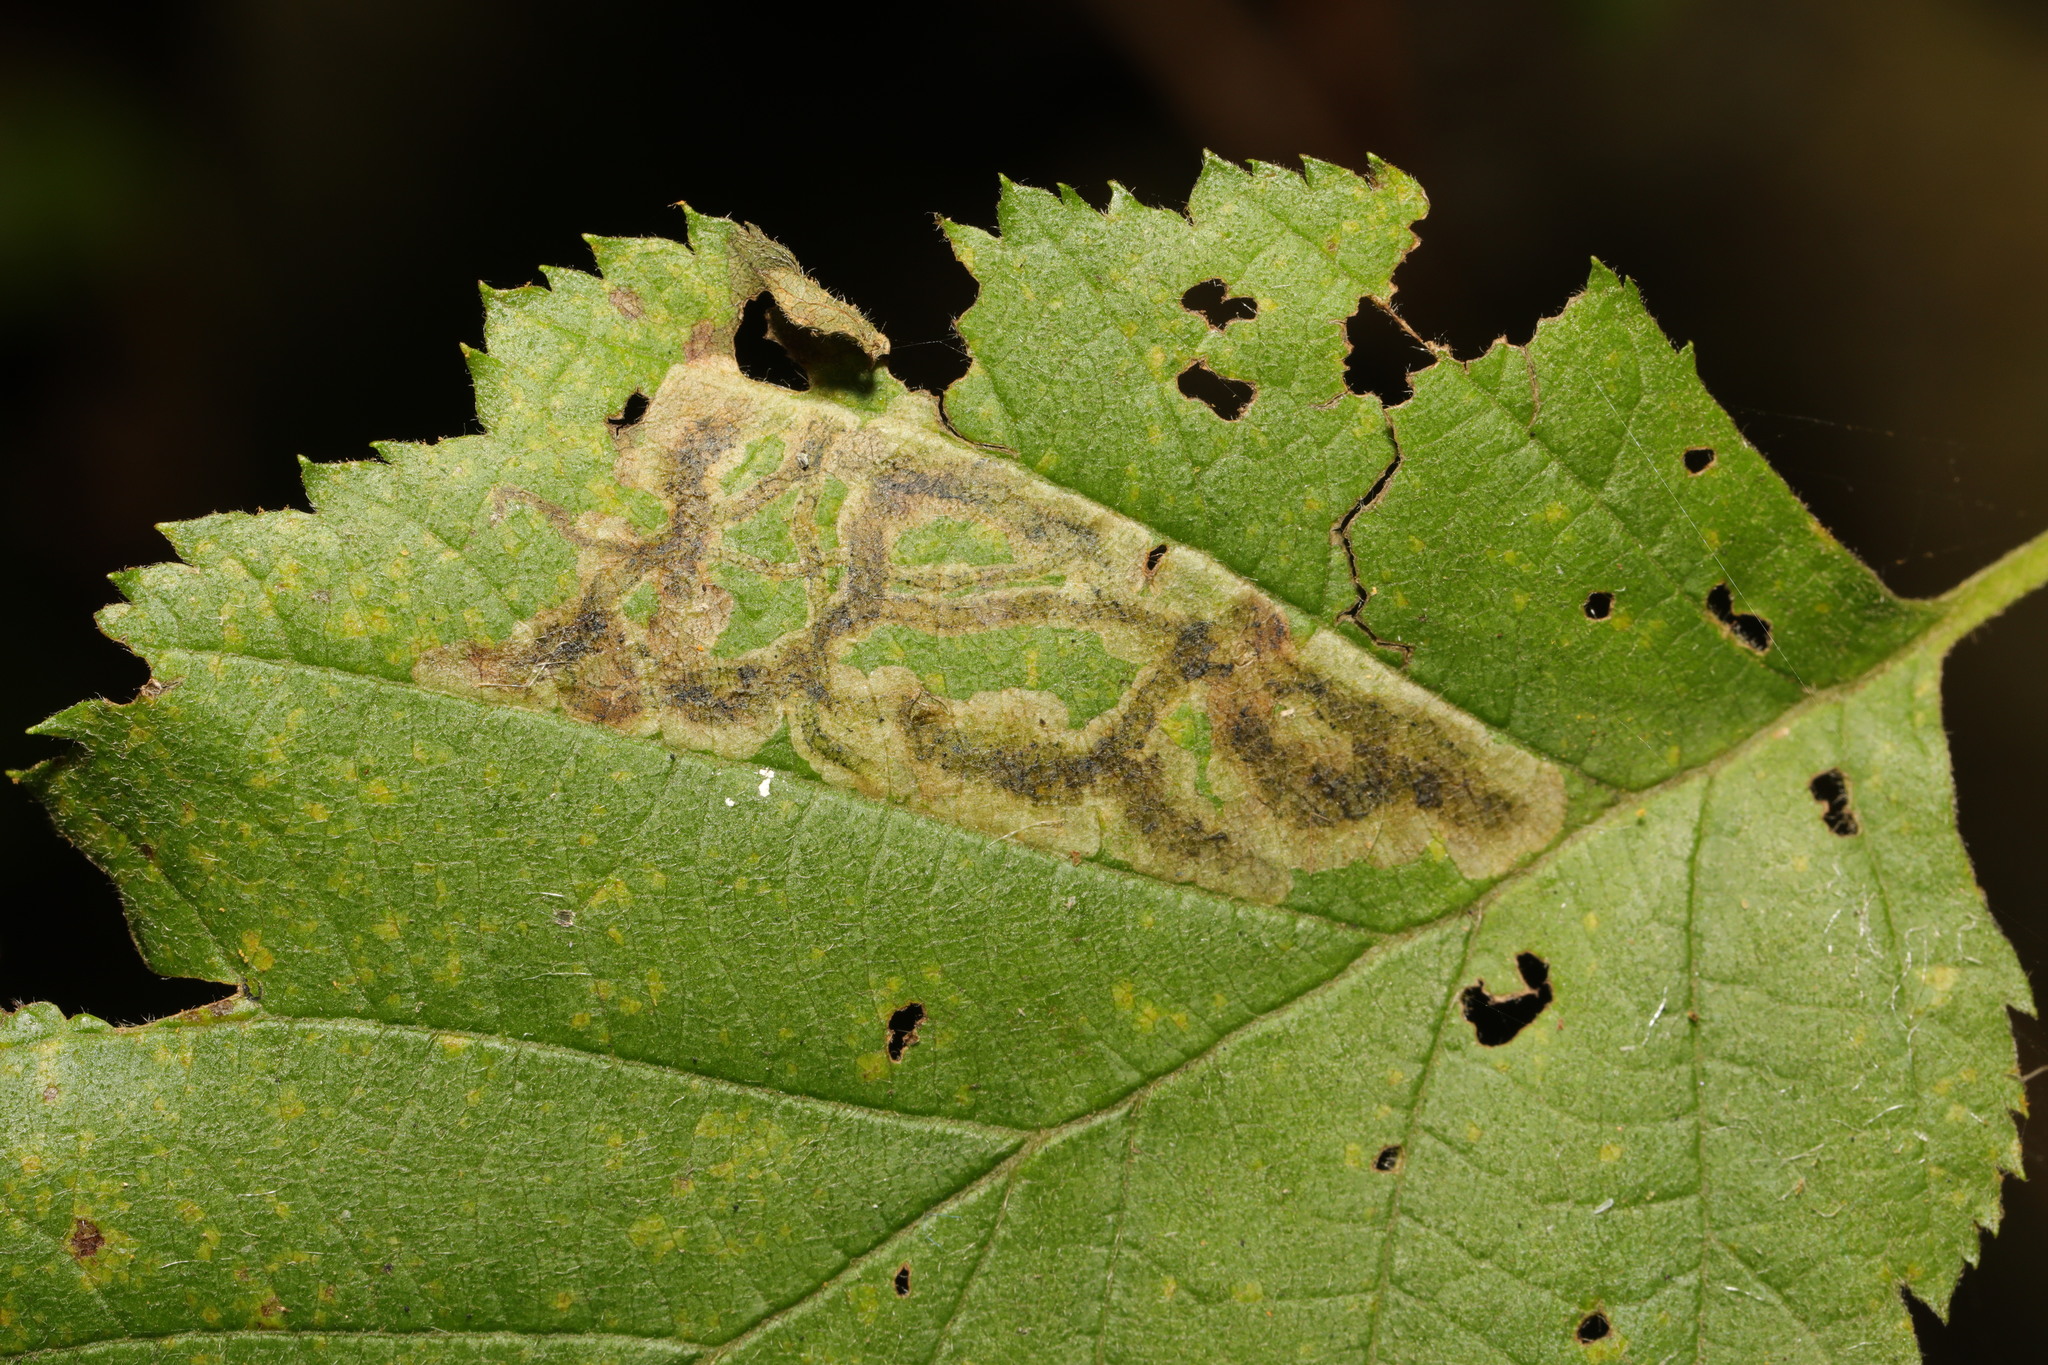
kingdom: Animalia
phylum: Arthropoda
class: Insecta
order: Diptera
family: Agromyzidae
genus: Agromyza
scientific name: Agromyza alnivora
